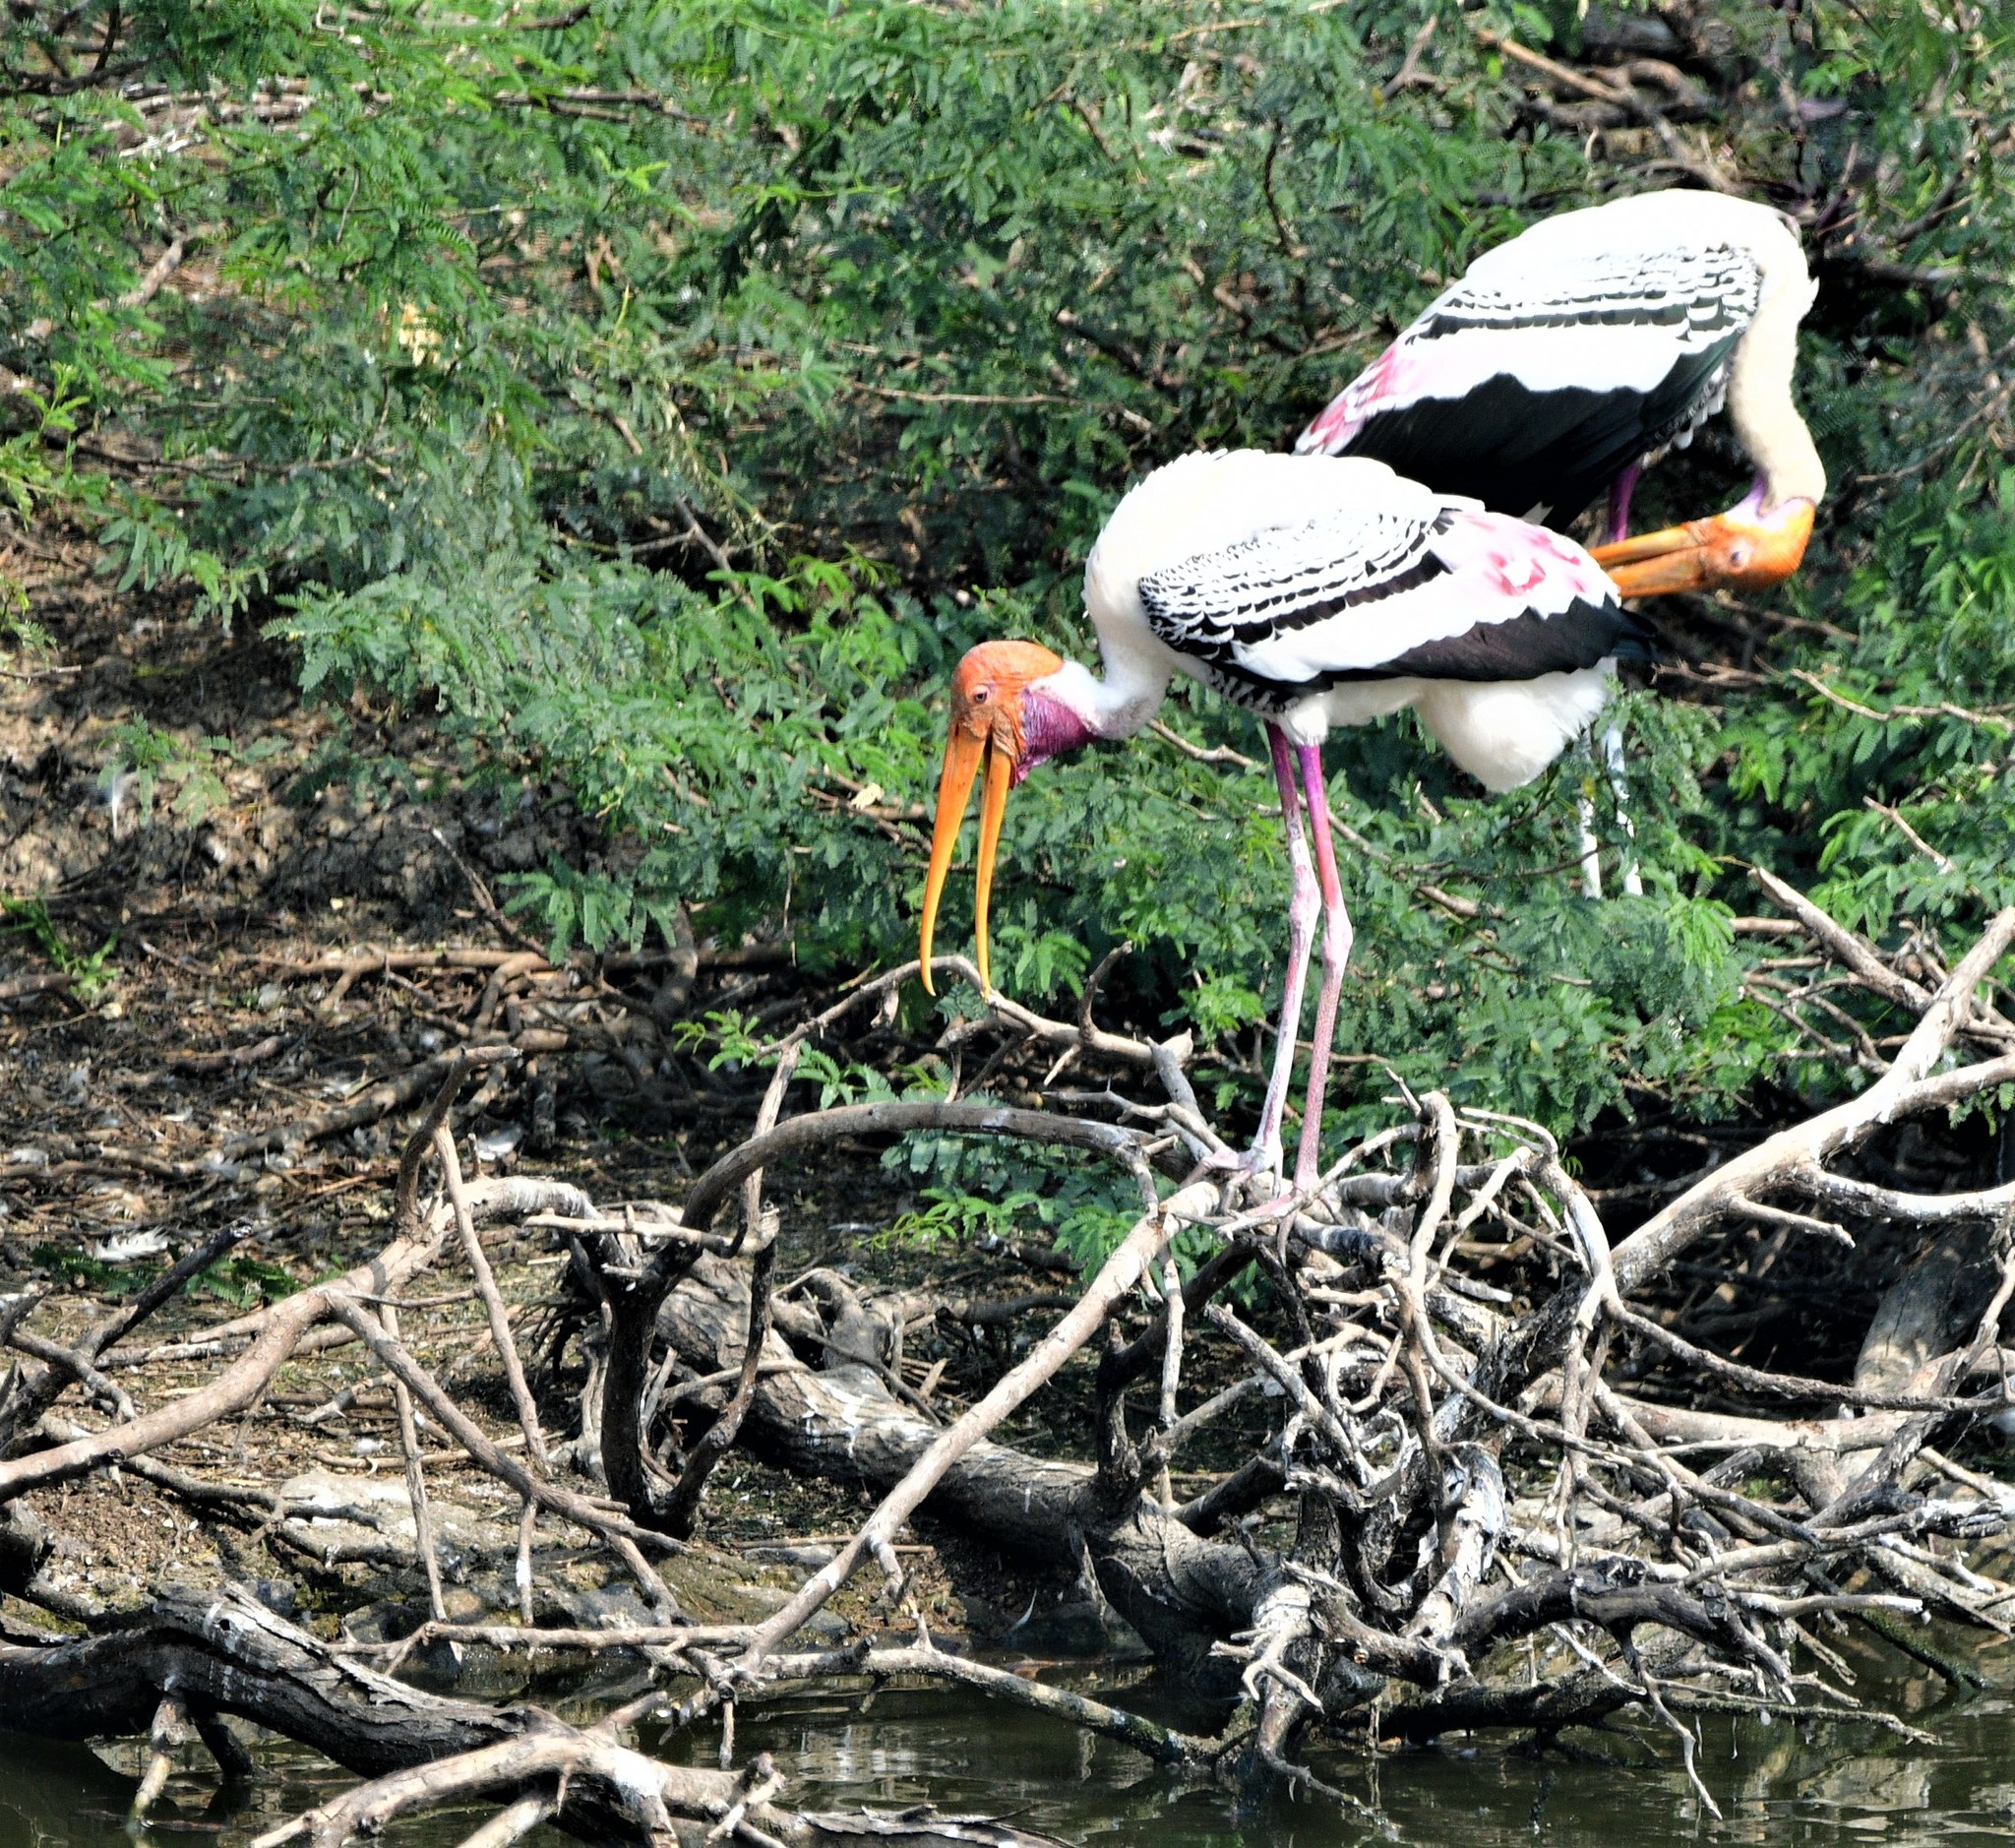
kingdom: Animalia
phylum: Chordata
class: Aves
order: Ciconiiformes
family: Ciconiidae
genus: Mycteria
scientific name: Mycteria leucocephala
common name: Painted stork
